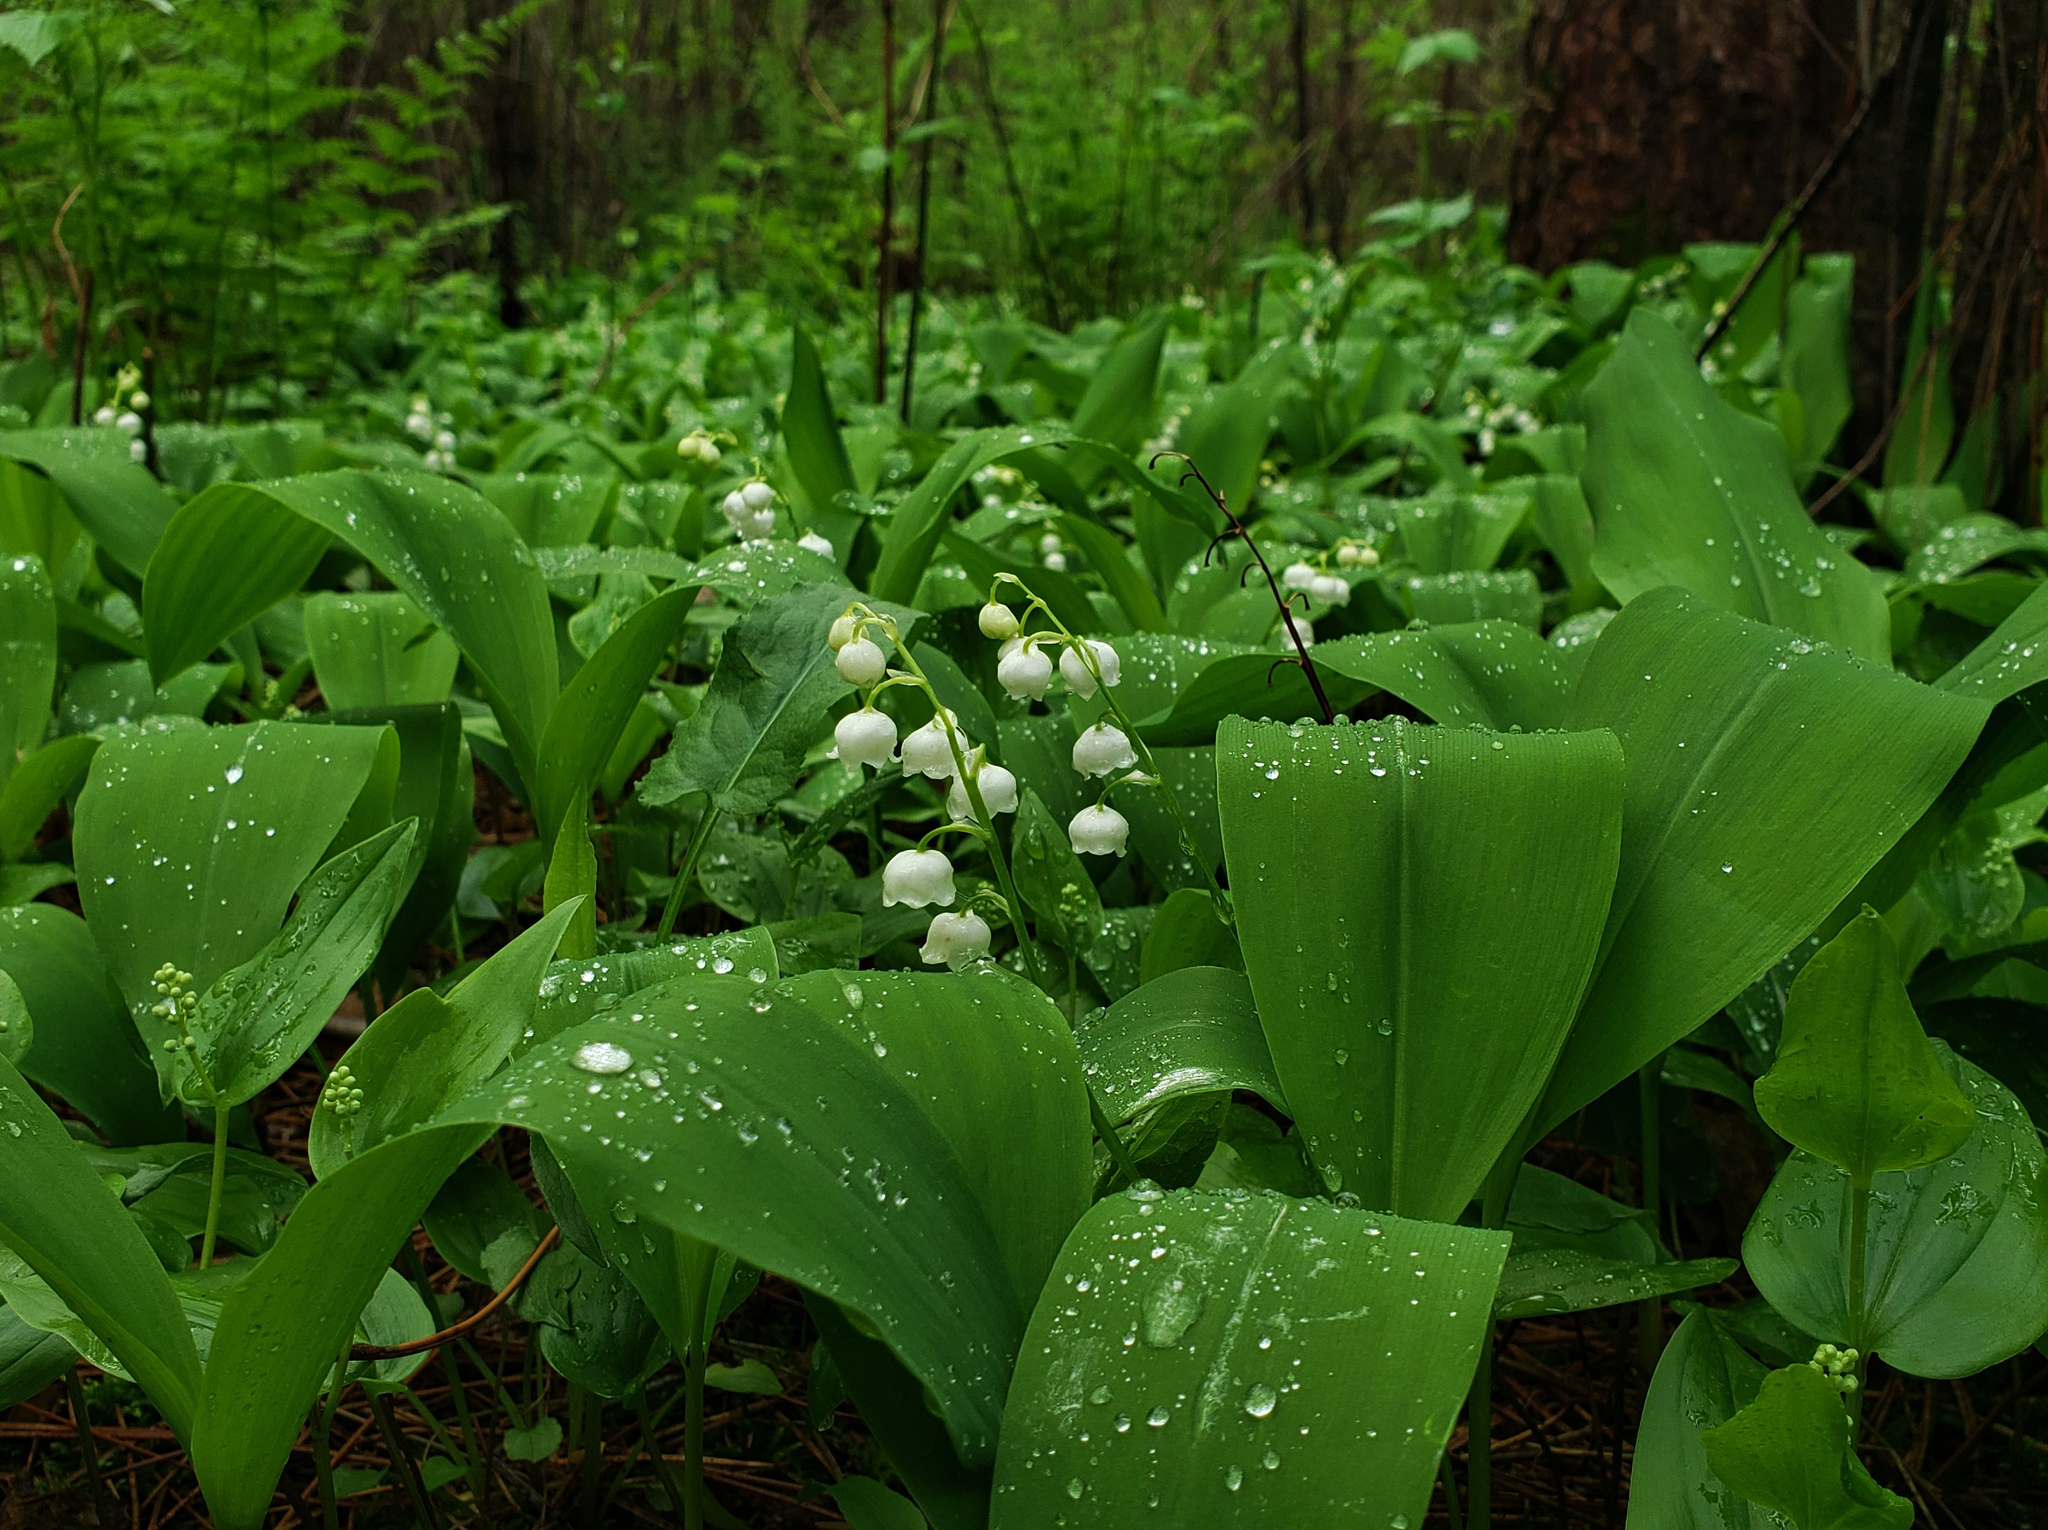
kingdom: Plantae
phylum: Tracheophyta
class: Liliopsida
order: Asparagales
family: Asparagaceae
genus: Convallaria
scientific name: Convallaria majalis
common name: Lily-of-the-valley
